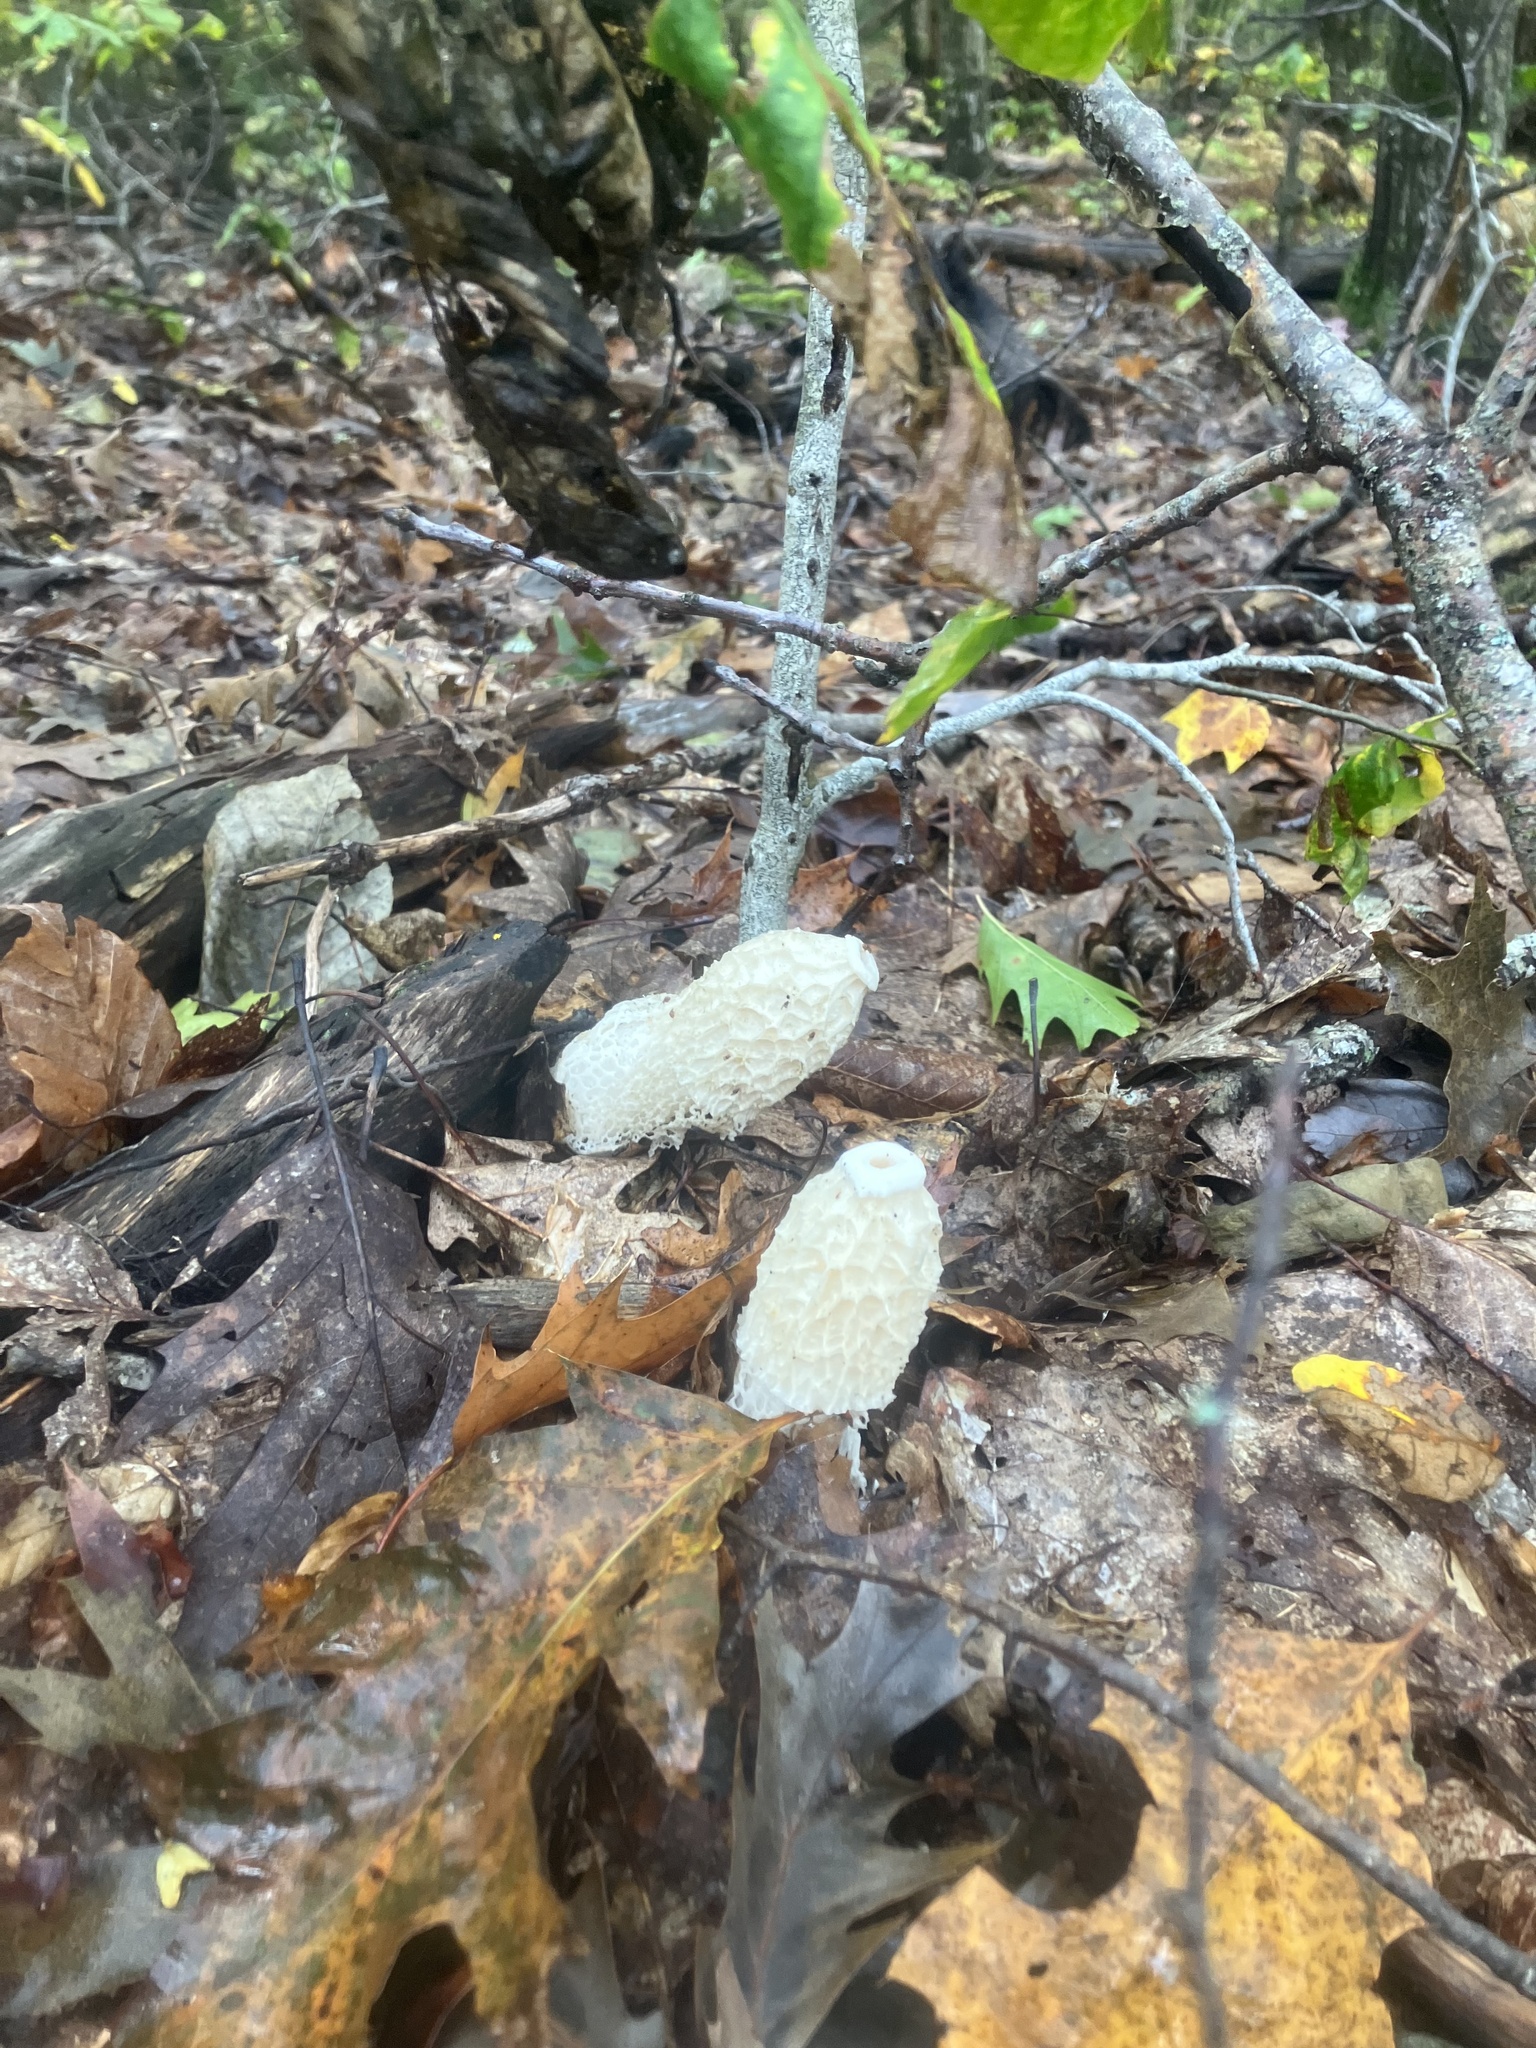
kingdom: Fungi
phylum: Basidiomycota
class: Agaricomycetes
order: Phallales
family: Phallaceae
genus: Phallus
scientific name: Phallus indusiatus
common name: Bridal veil stinkhorn
